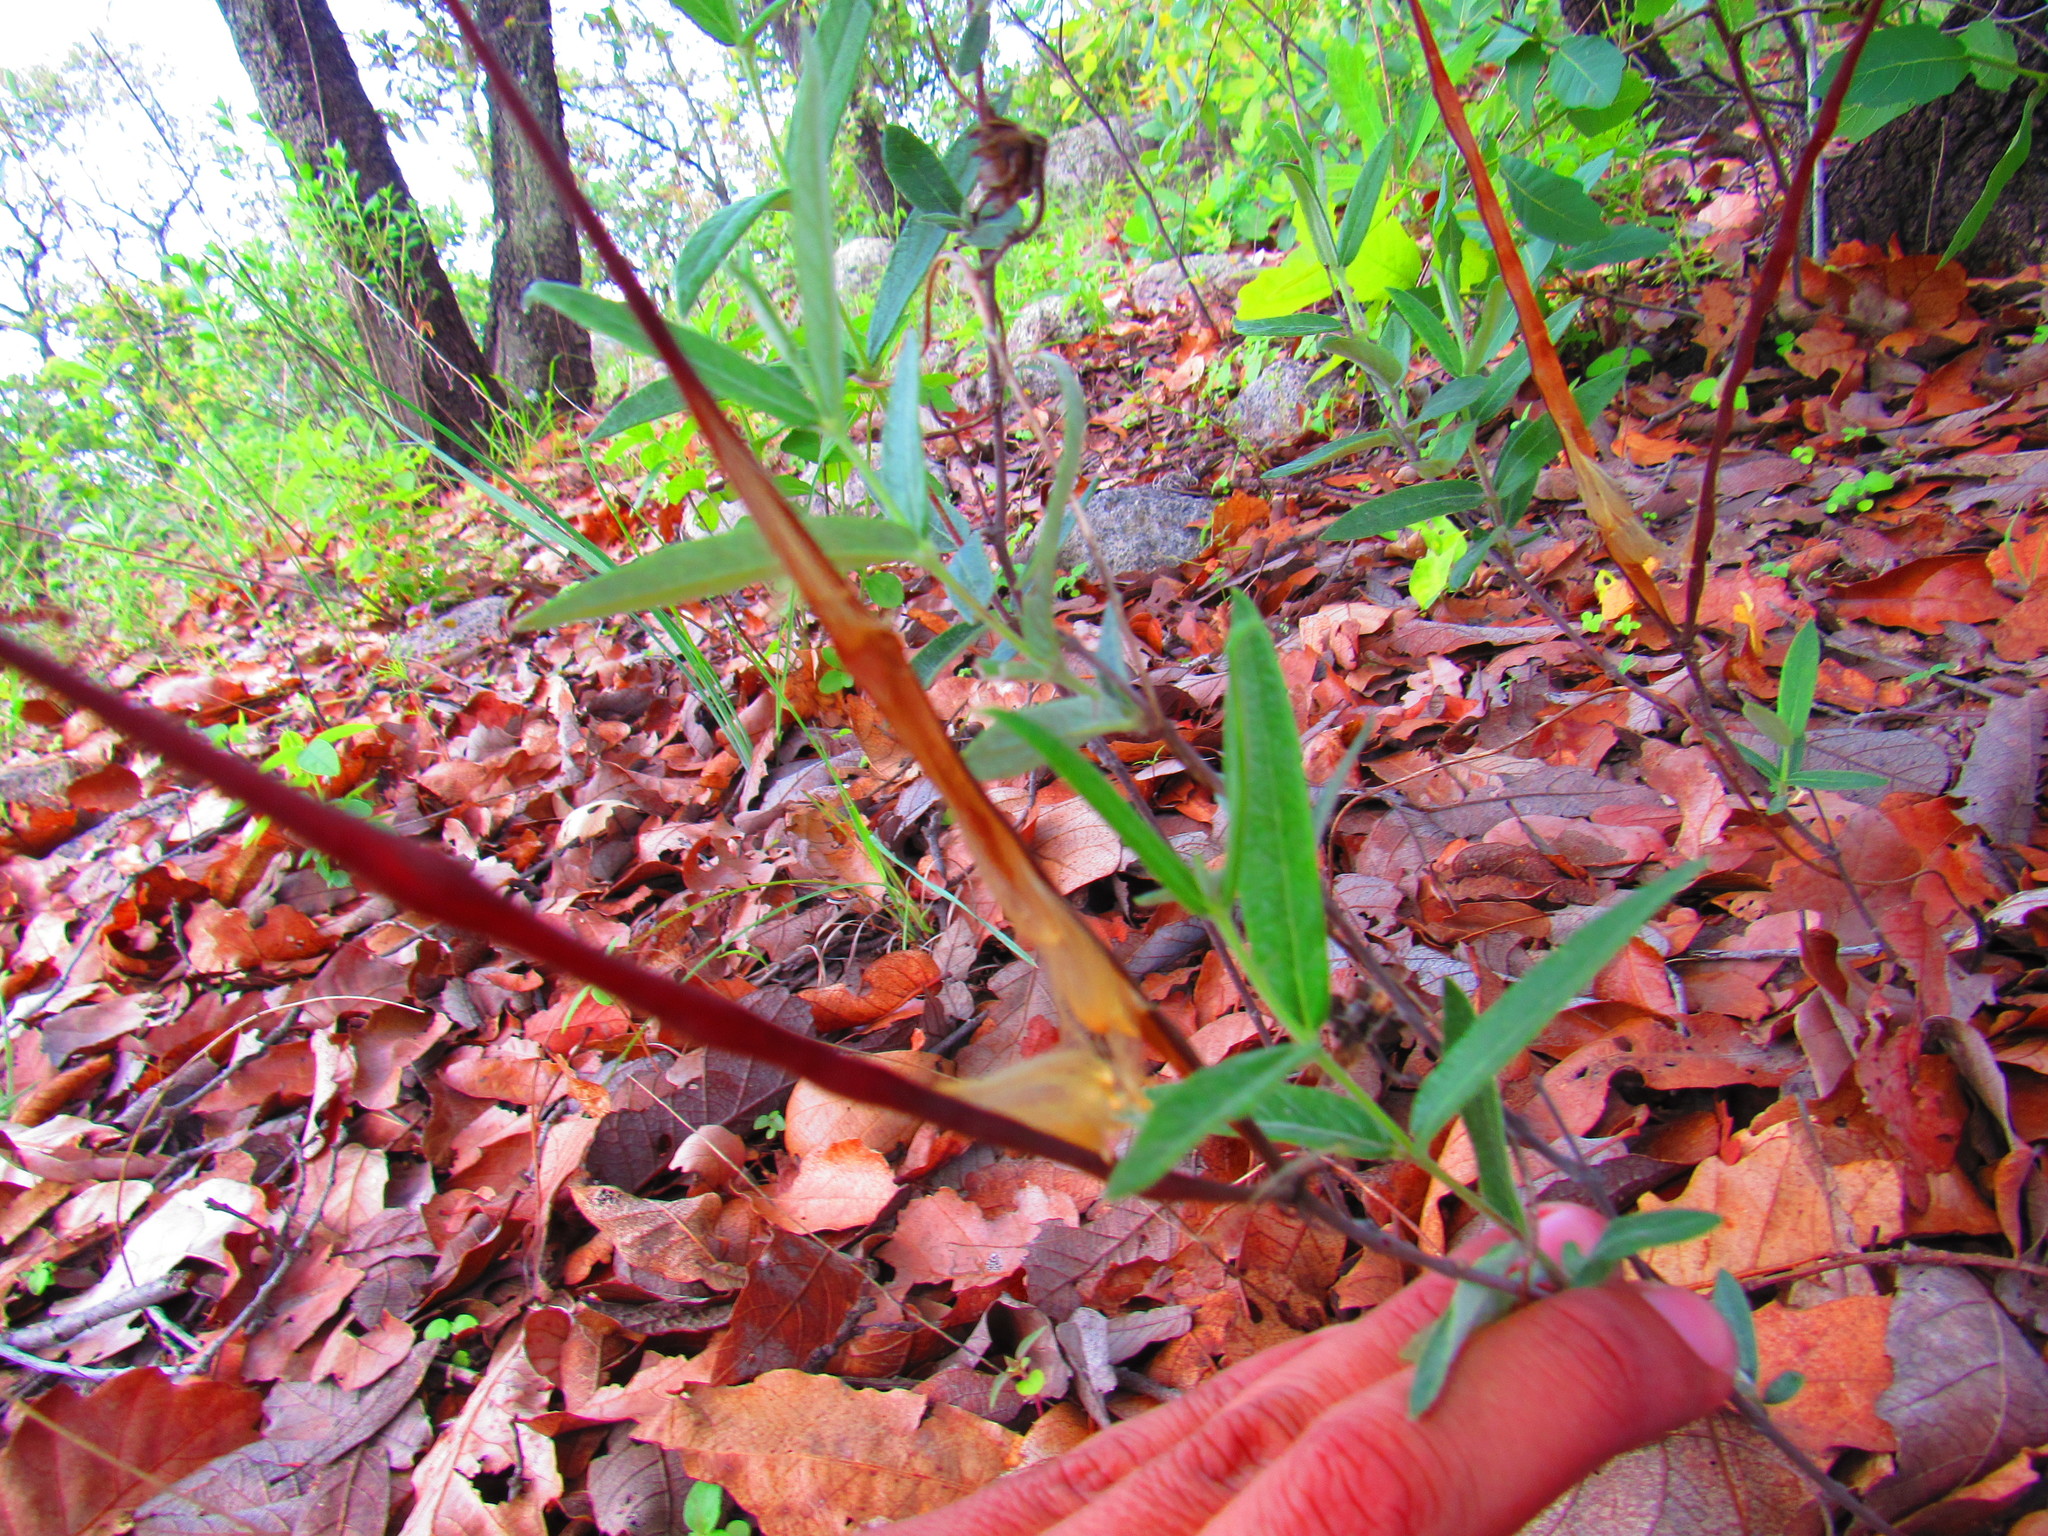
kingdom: Plantae
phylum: Tracheophyta
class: Magnoliopsida
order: Gentianales
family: Apocynaceae
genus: Mandevilla
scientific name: Mandevilla hypoleuca
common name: Davis mountain rocktrumpet
